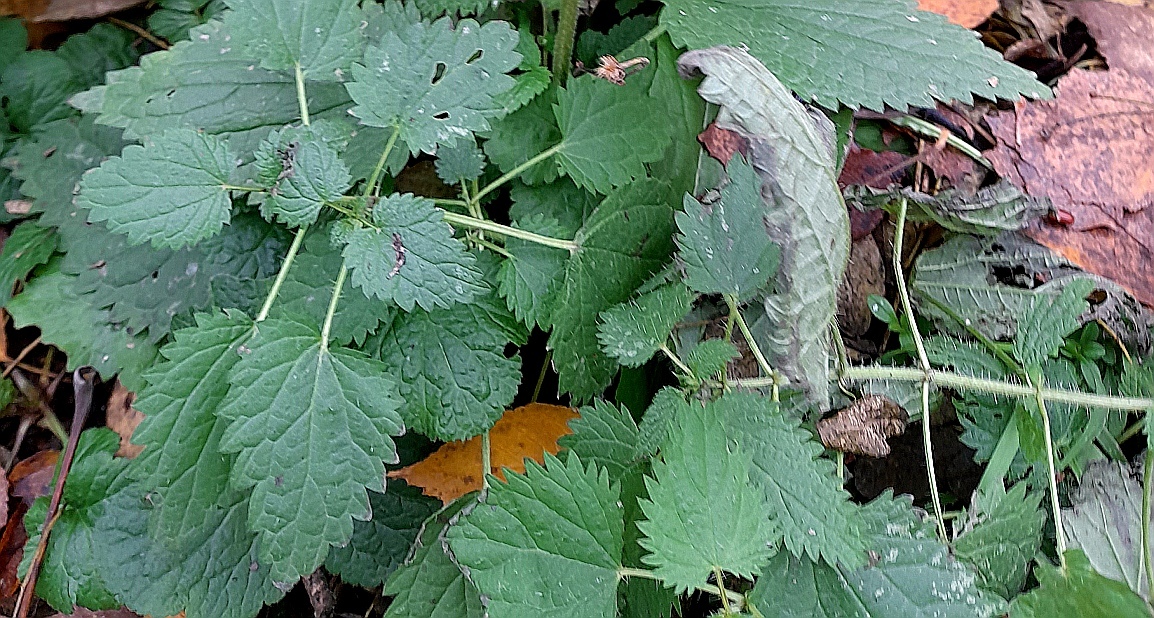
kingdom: Plantae
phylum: Tracheophyta
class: Magnoliopsida
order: Rosales
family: Urticaceae
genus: Urtica
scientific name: Urtica dioica
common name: Common nettle
